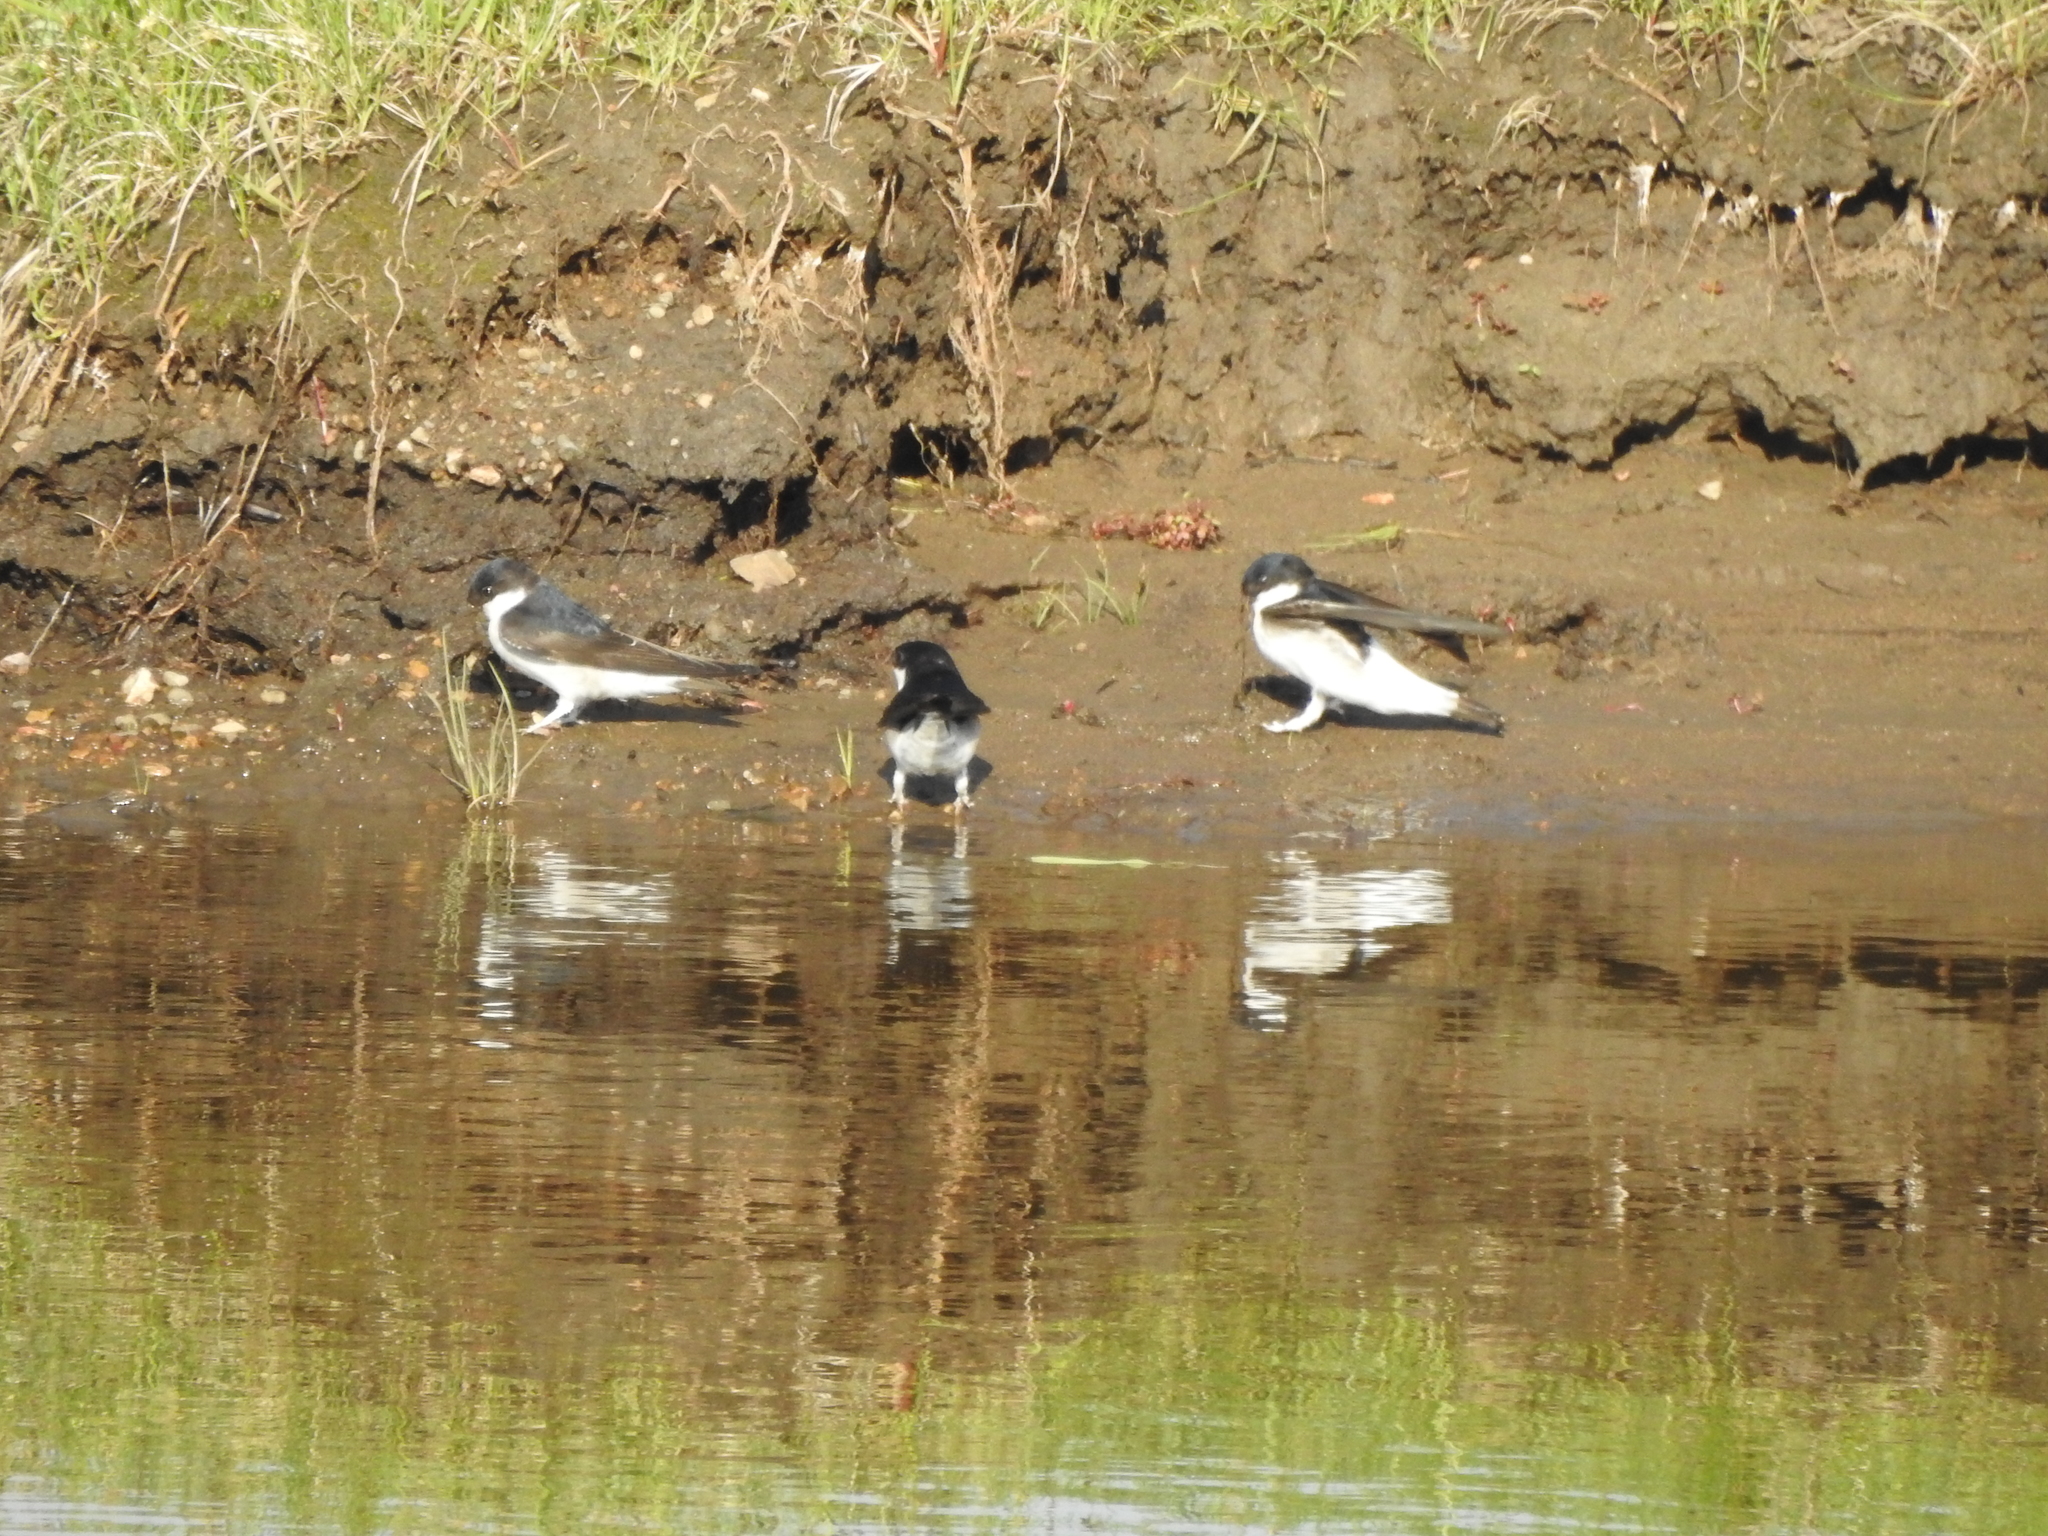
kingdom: Animalia
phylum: Chordata
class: Aves
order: Passeriformes
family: Hirundinidae
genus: Delichon
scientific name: Delichon urbicum
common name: Common house martin
